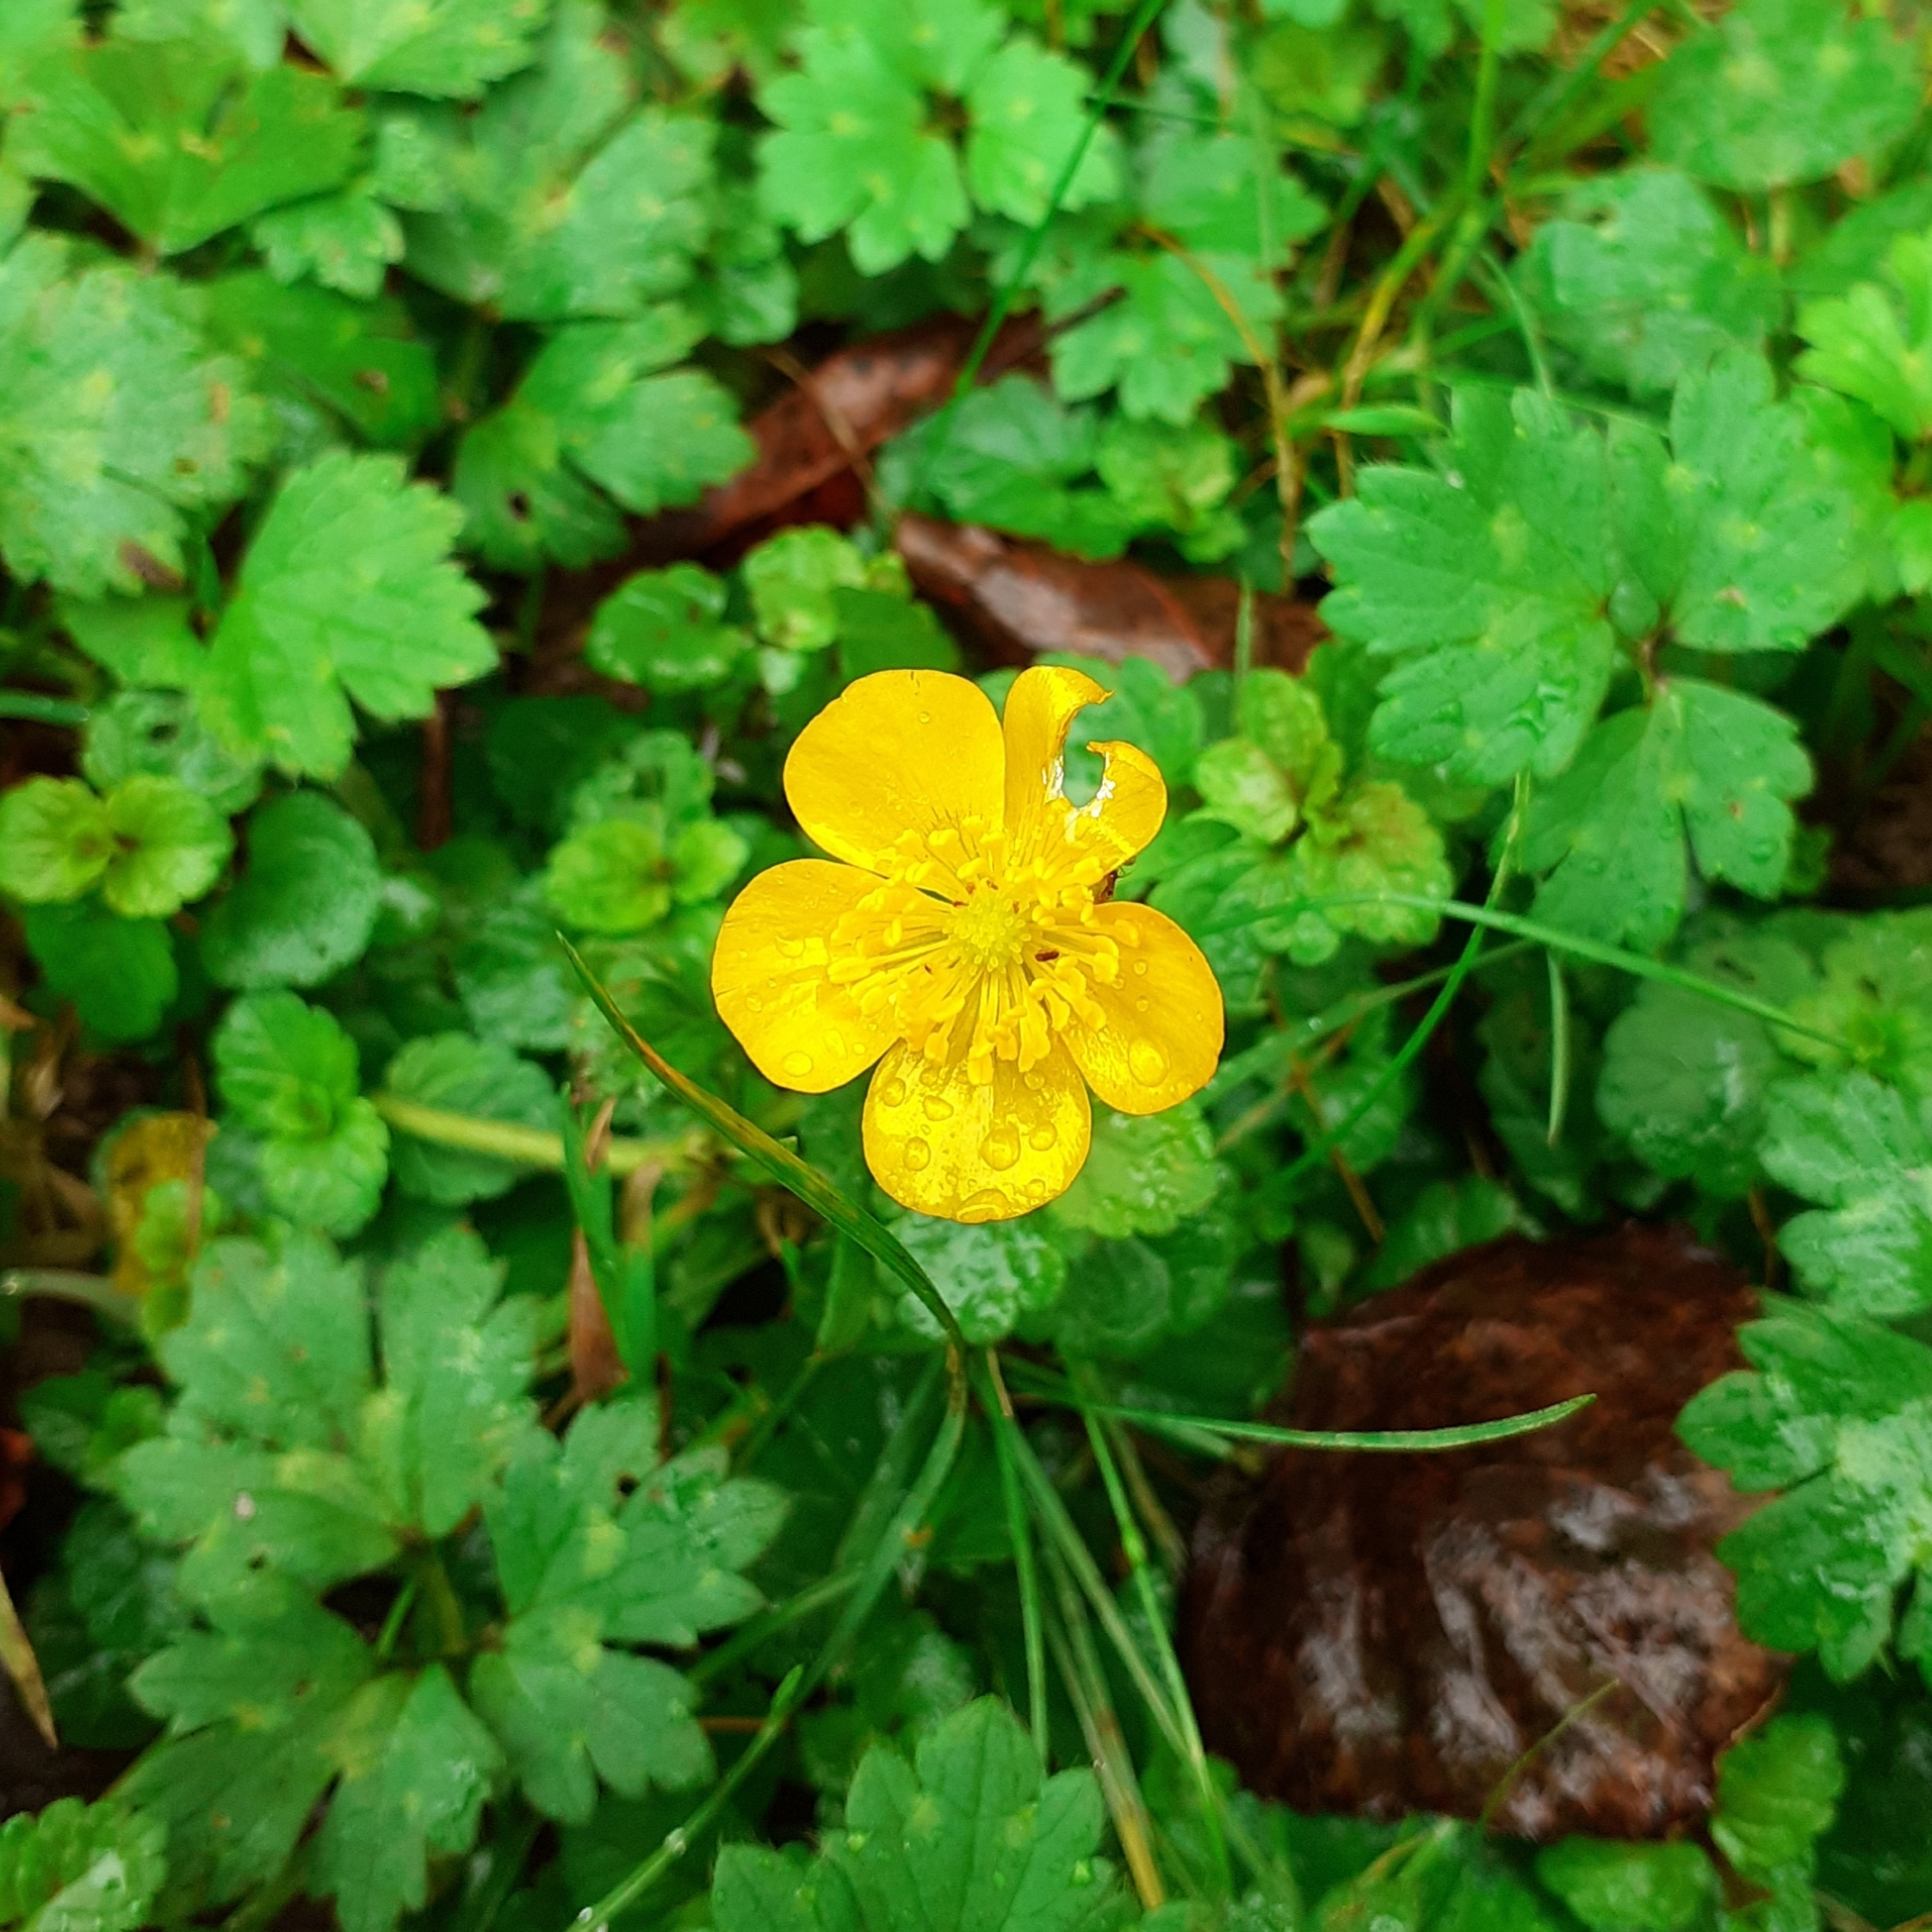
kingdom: Plantae
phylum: Tracheophyta
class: Magnoliopsida
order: Ranunculales
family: Ranunculaceae
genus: Ranunculus
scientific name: Ranunculus repens
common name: Creeping buttercup
